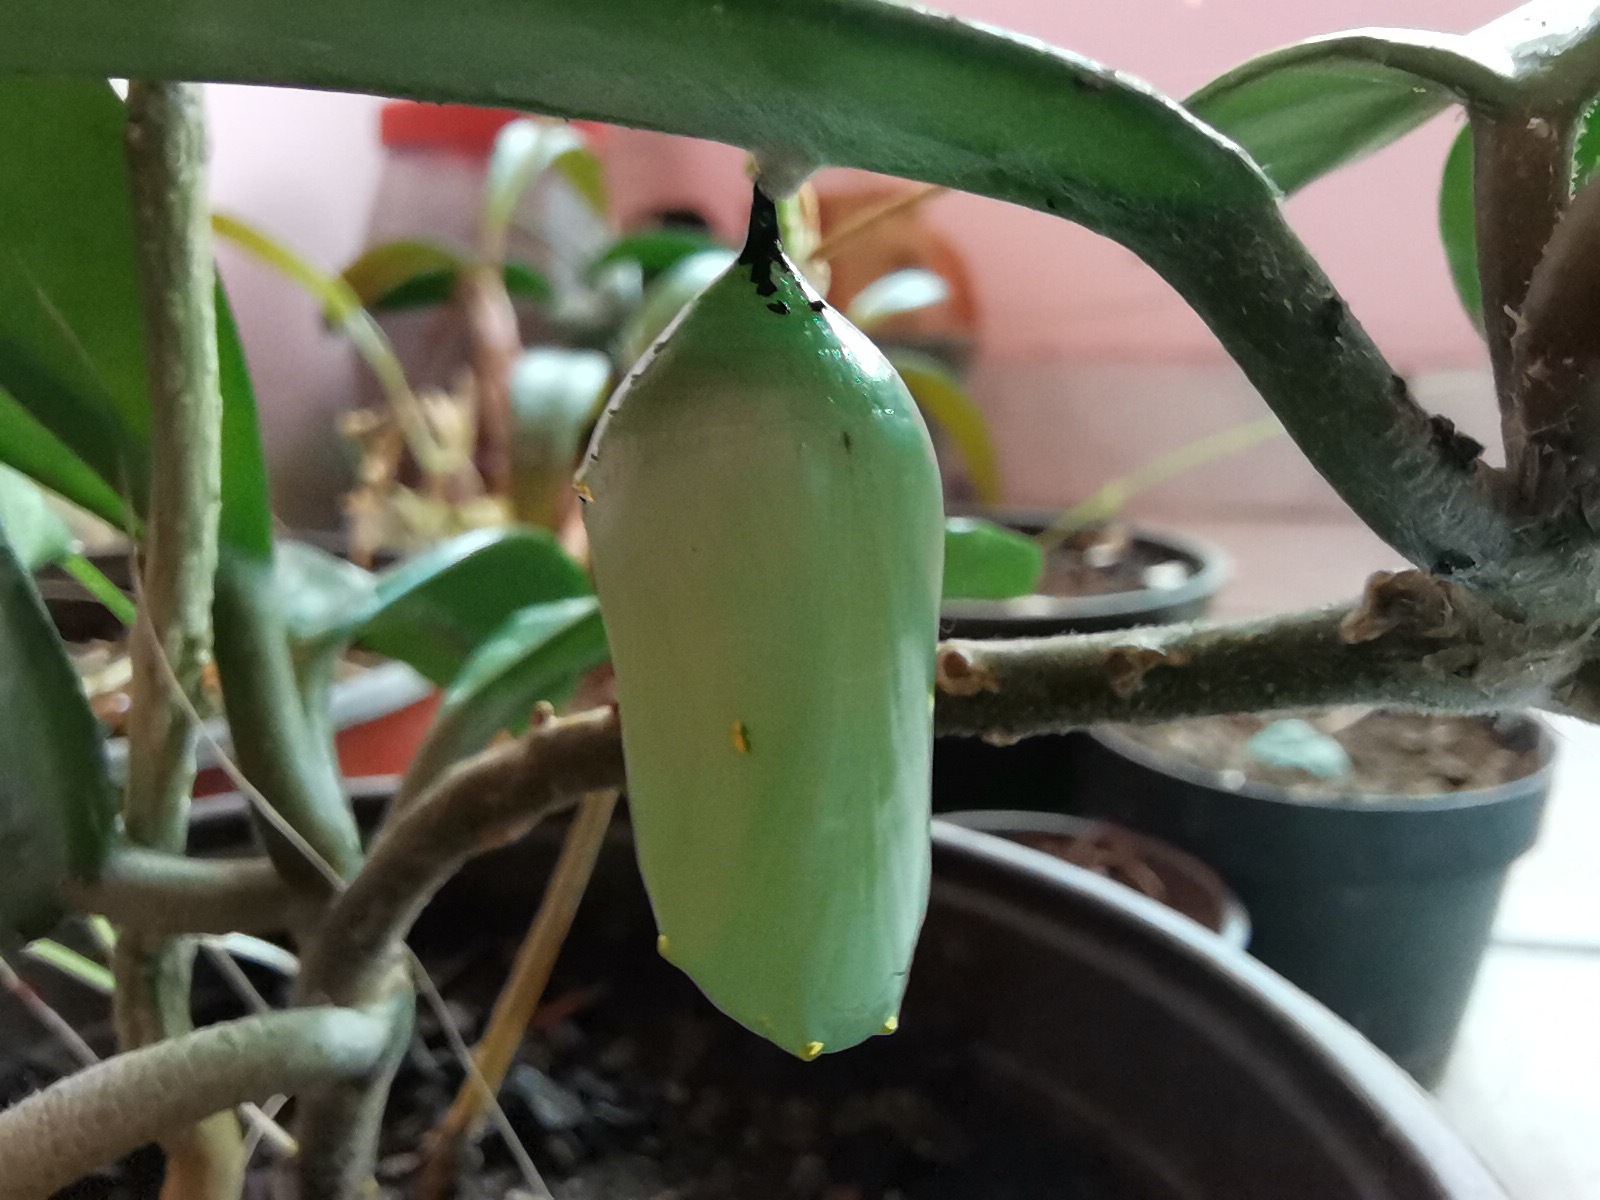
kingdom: Animalia
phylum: Arthropoda
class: Insecta
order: Lepidoptera
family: Nymphalidae
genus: Danaus
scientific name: Danaus plexippus
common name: Monarch
